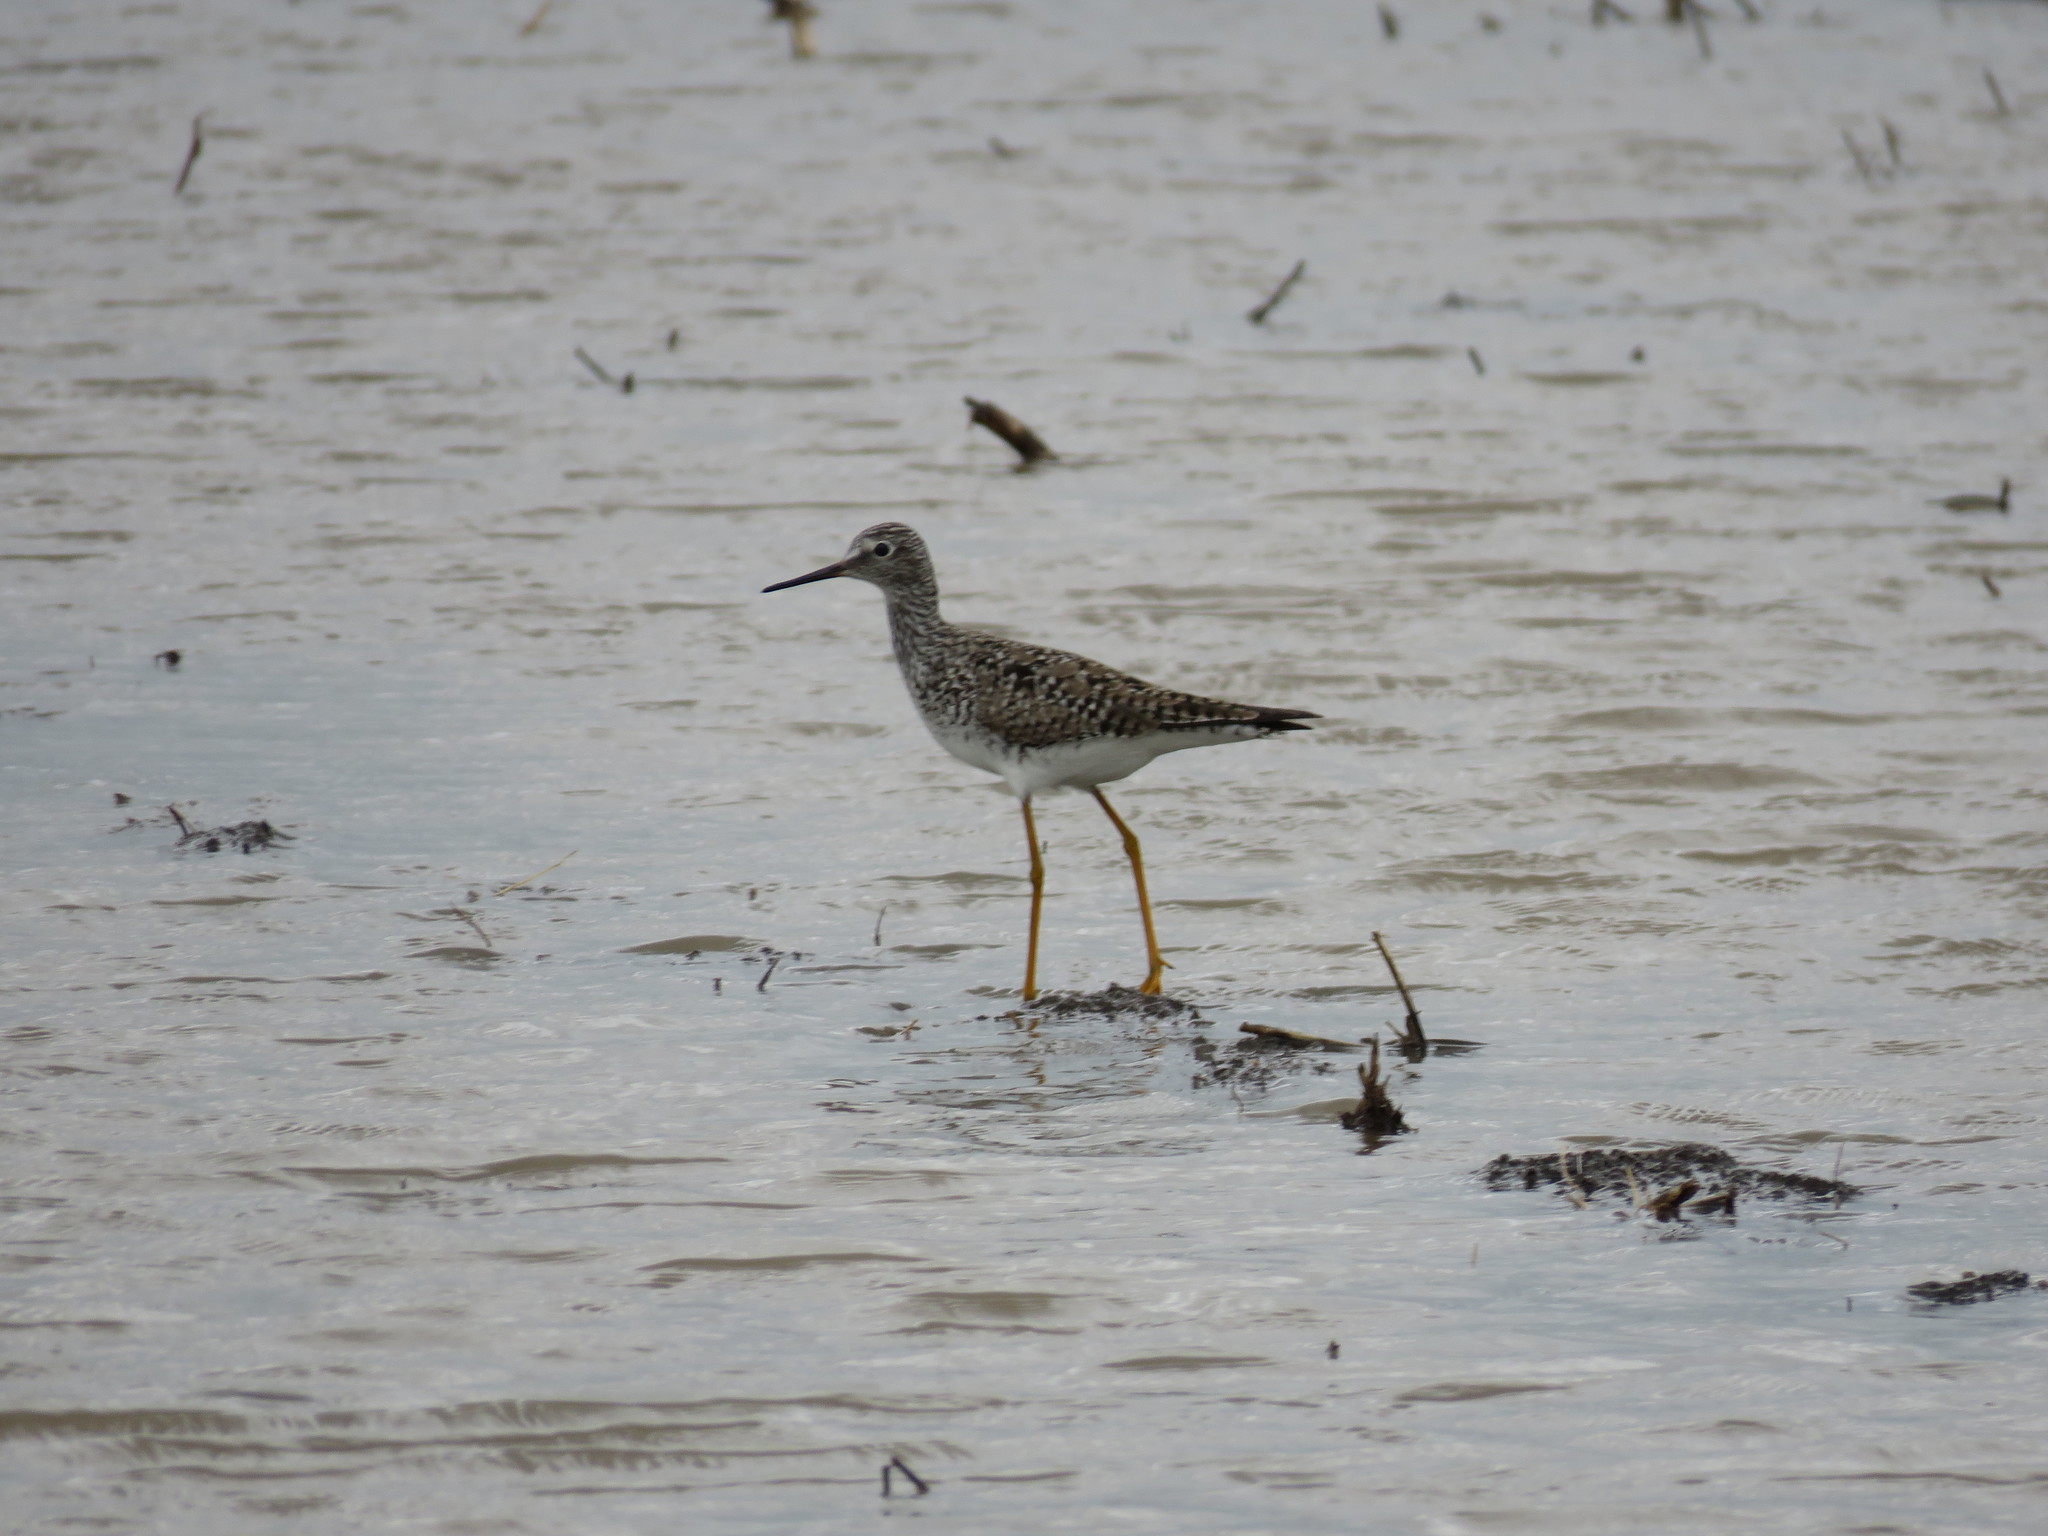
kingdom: Animalia
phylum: Chordata
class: Aves
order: Charadriiformes
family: Scolopacidae
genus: Tringa
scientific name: Tringa flavipes
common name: Lesser yellowlegs
